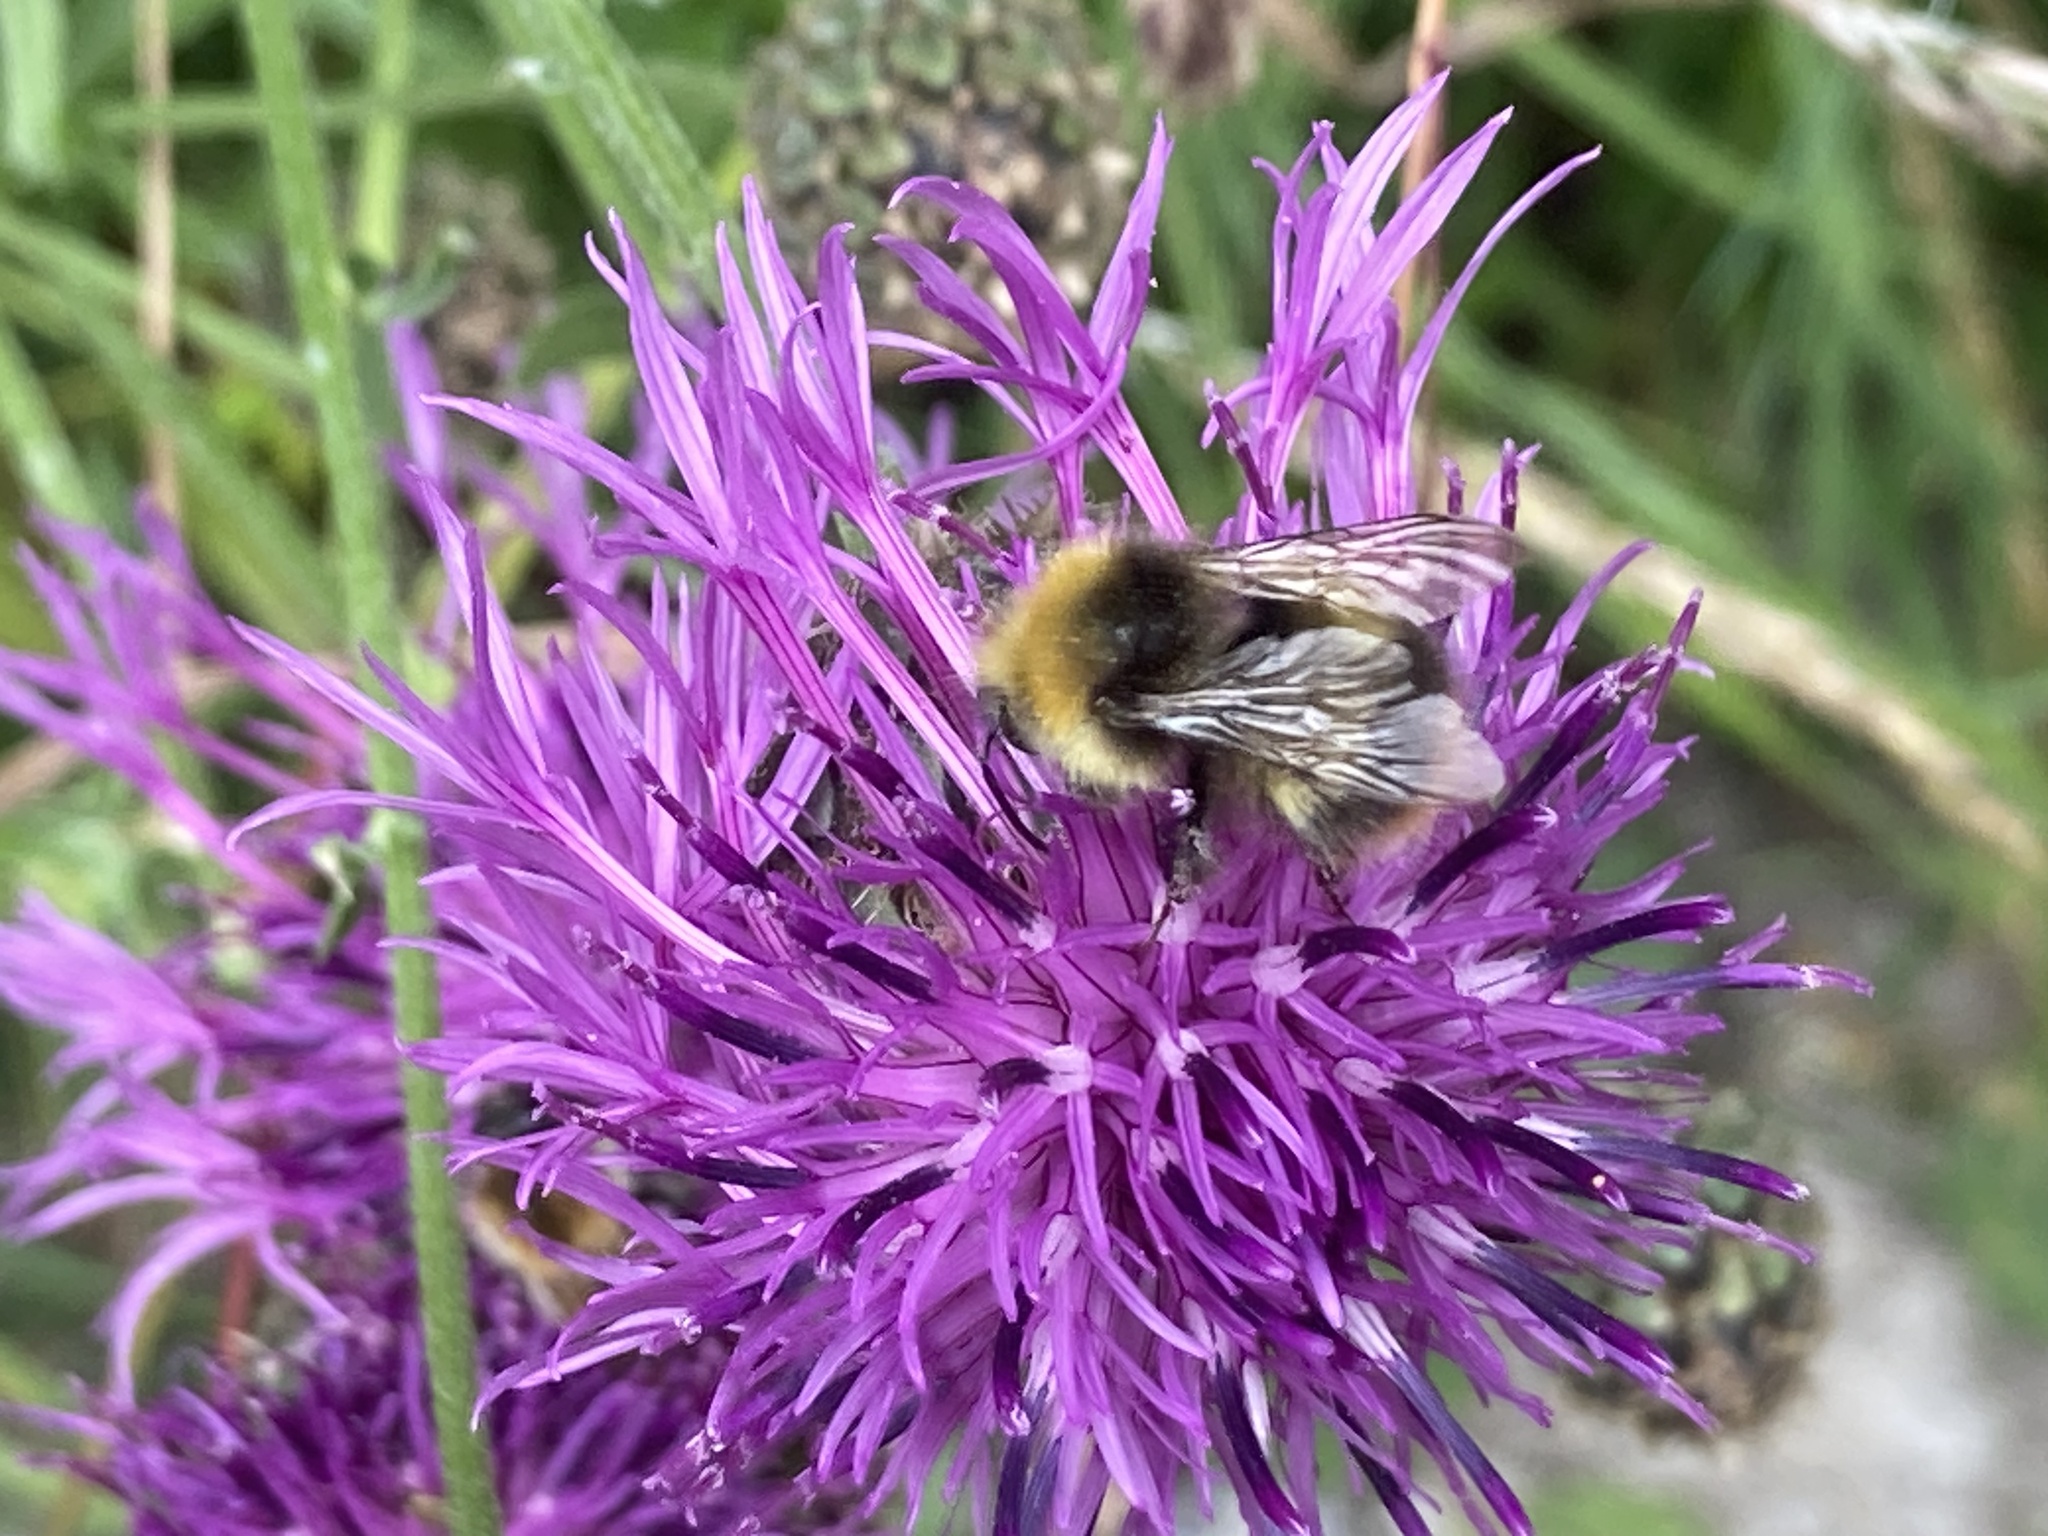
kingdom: Animalia
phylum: Arthropoda
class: Insecta
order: Hymenoptera
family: Apidae
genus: Bombus
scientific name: Bombus pratorum
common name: Early humble-bee
